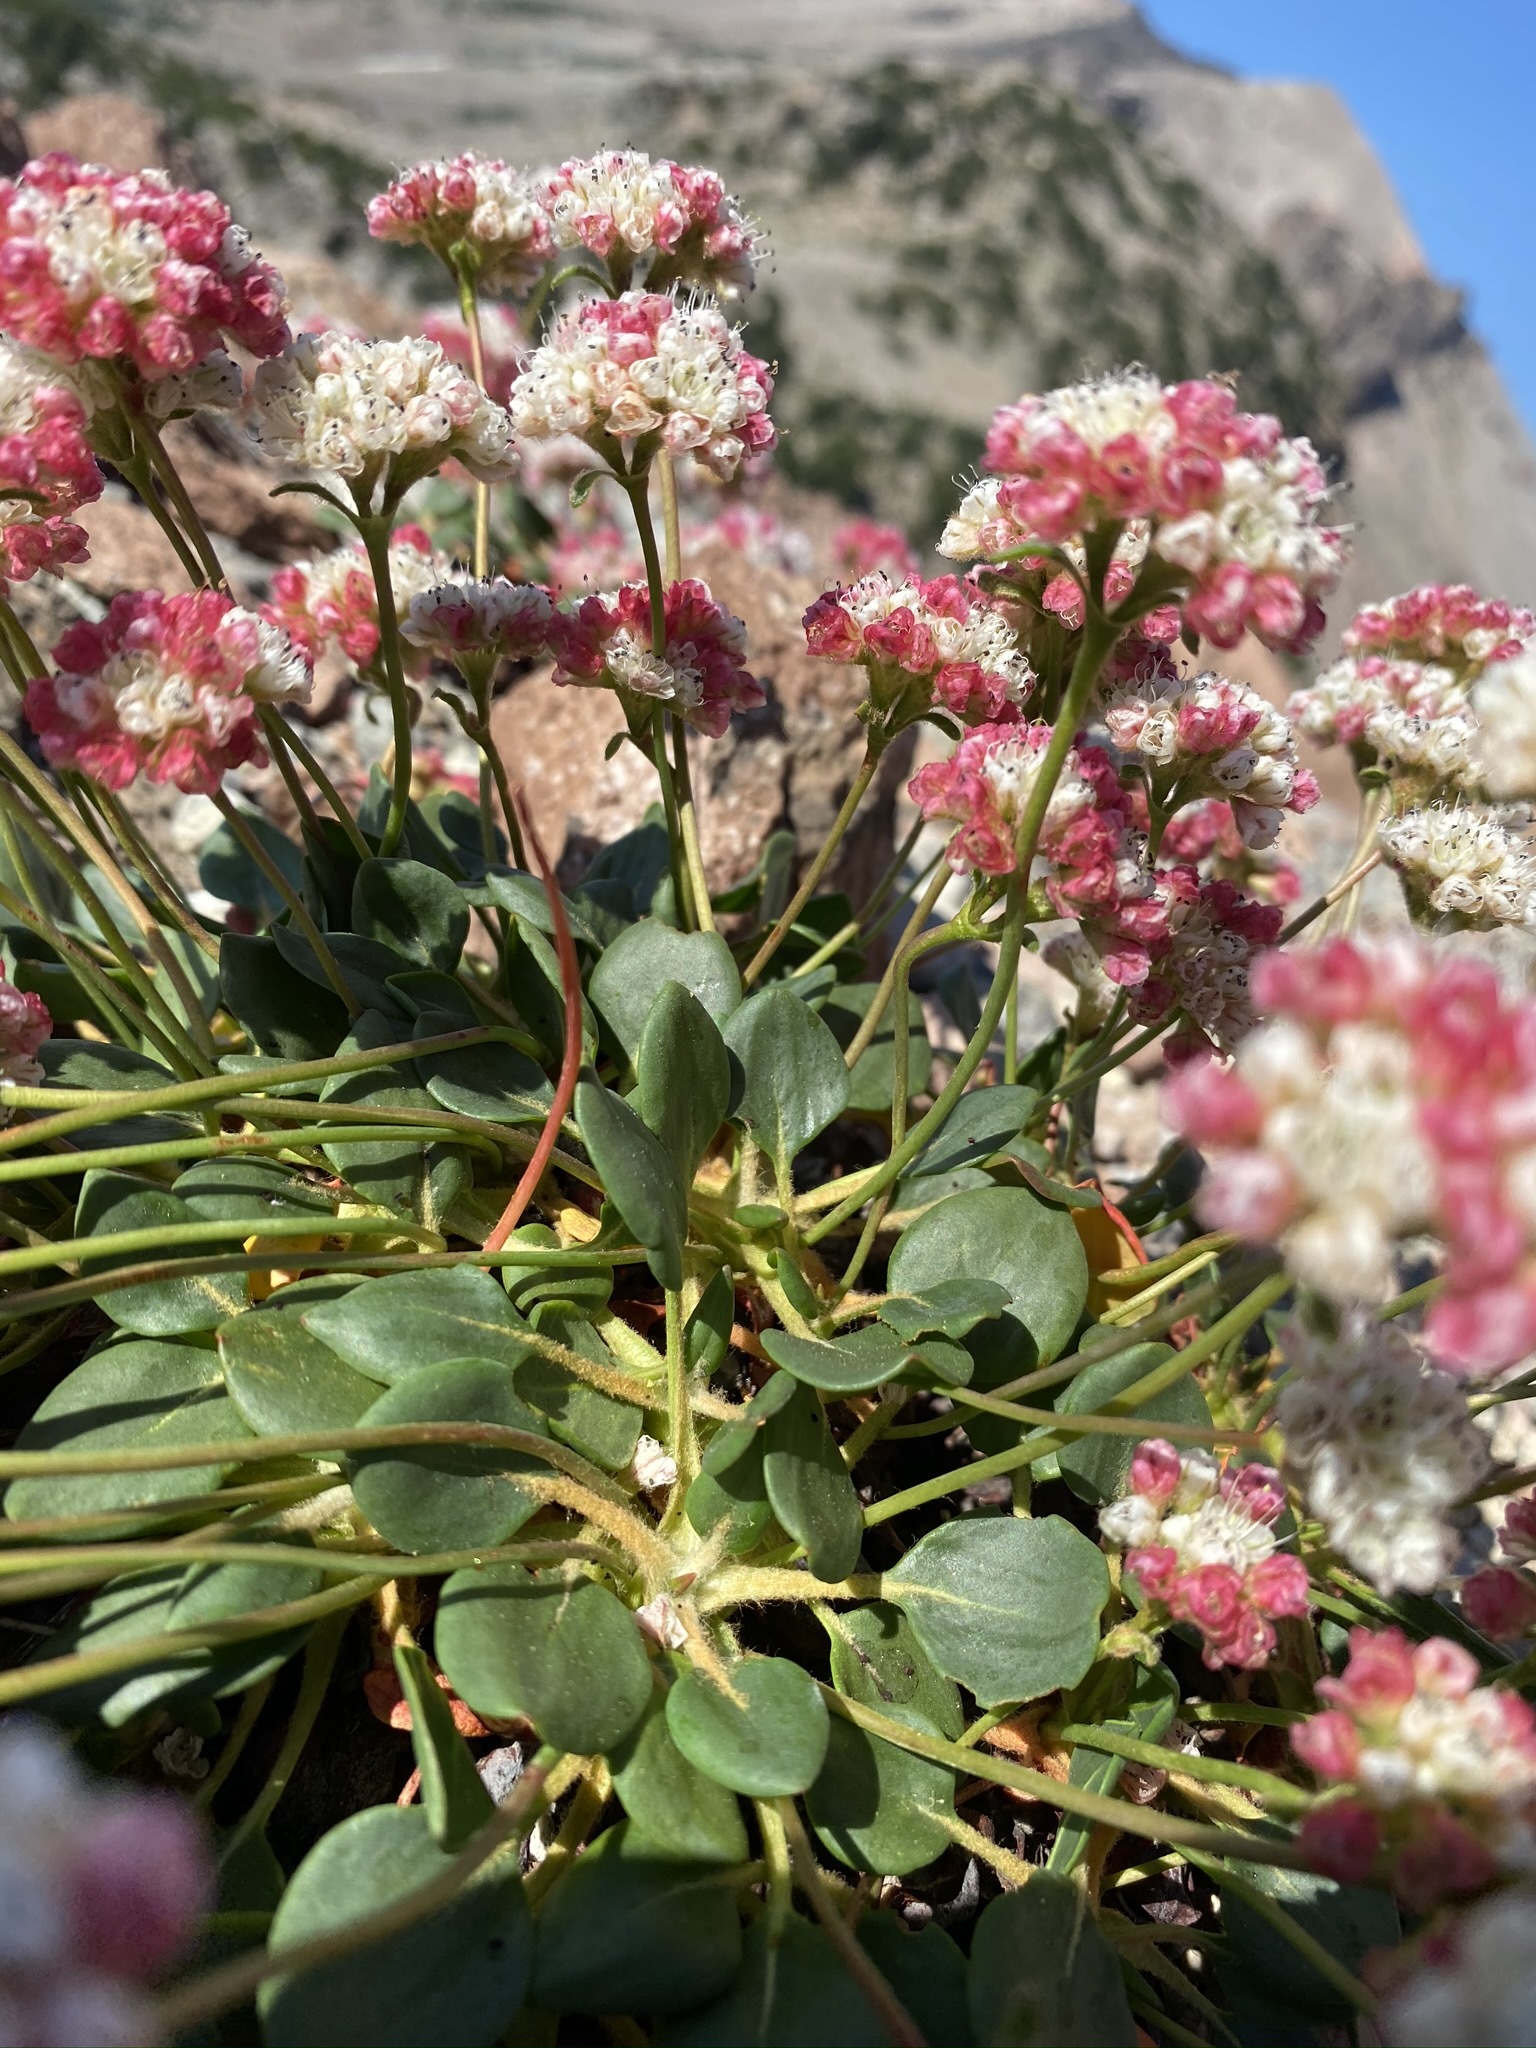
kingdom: Plantae
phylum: Tracheophyta
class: Magnoliopsida
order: Caryophyllales
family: Polygonaceae
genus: Eriogonum
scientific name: Eriogonum pyrolifolium
